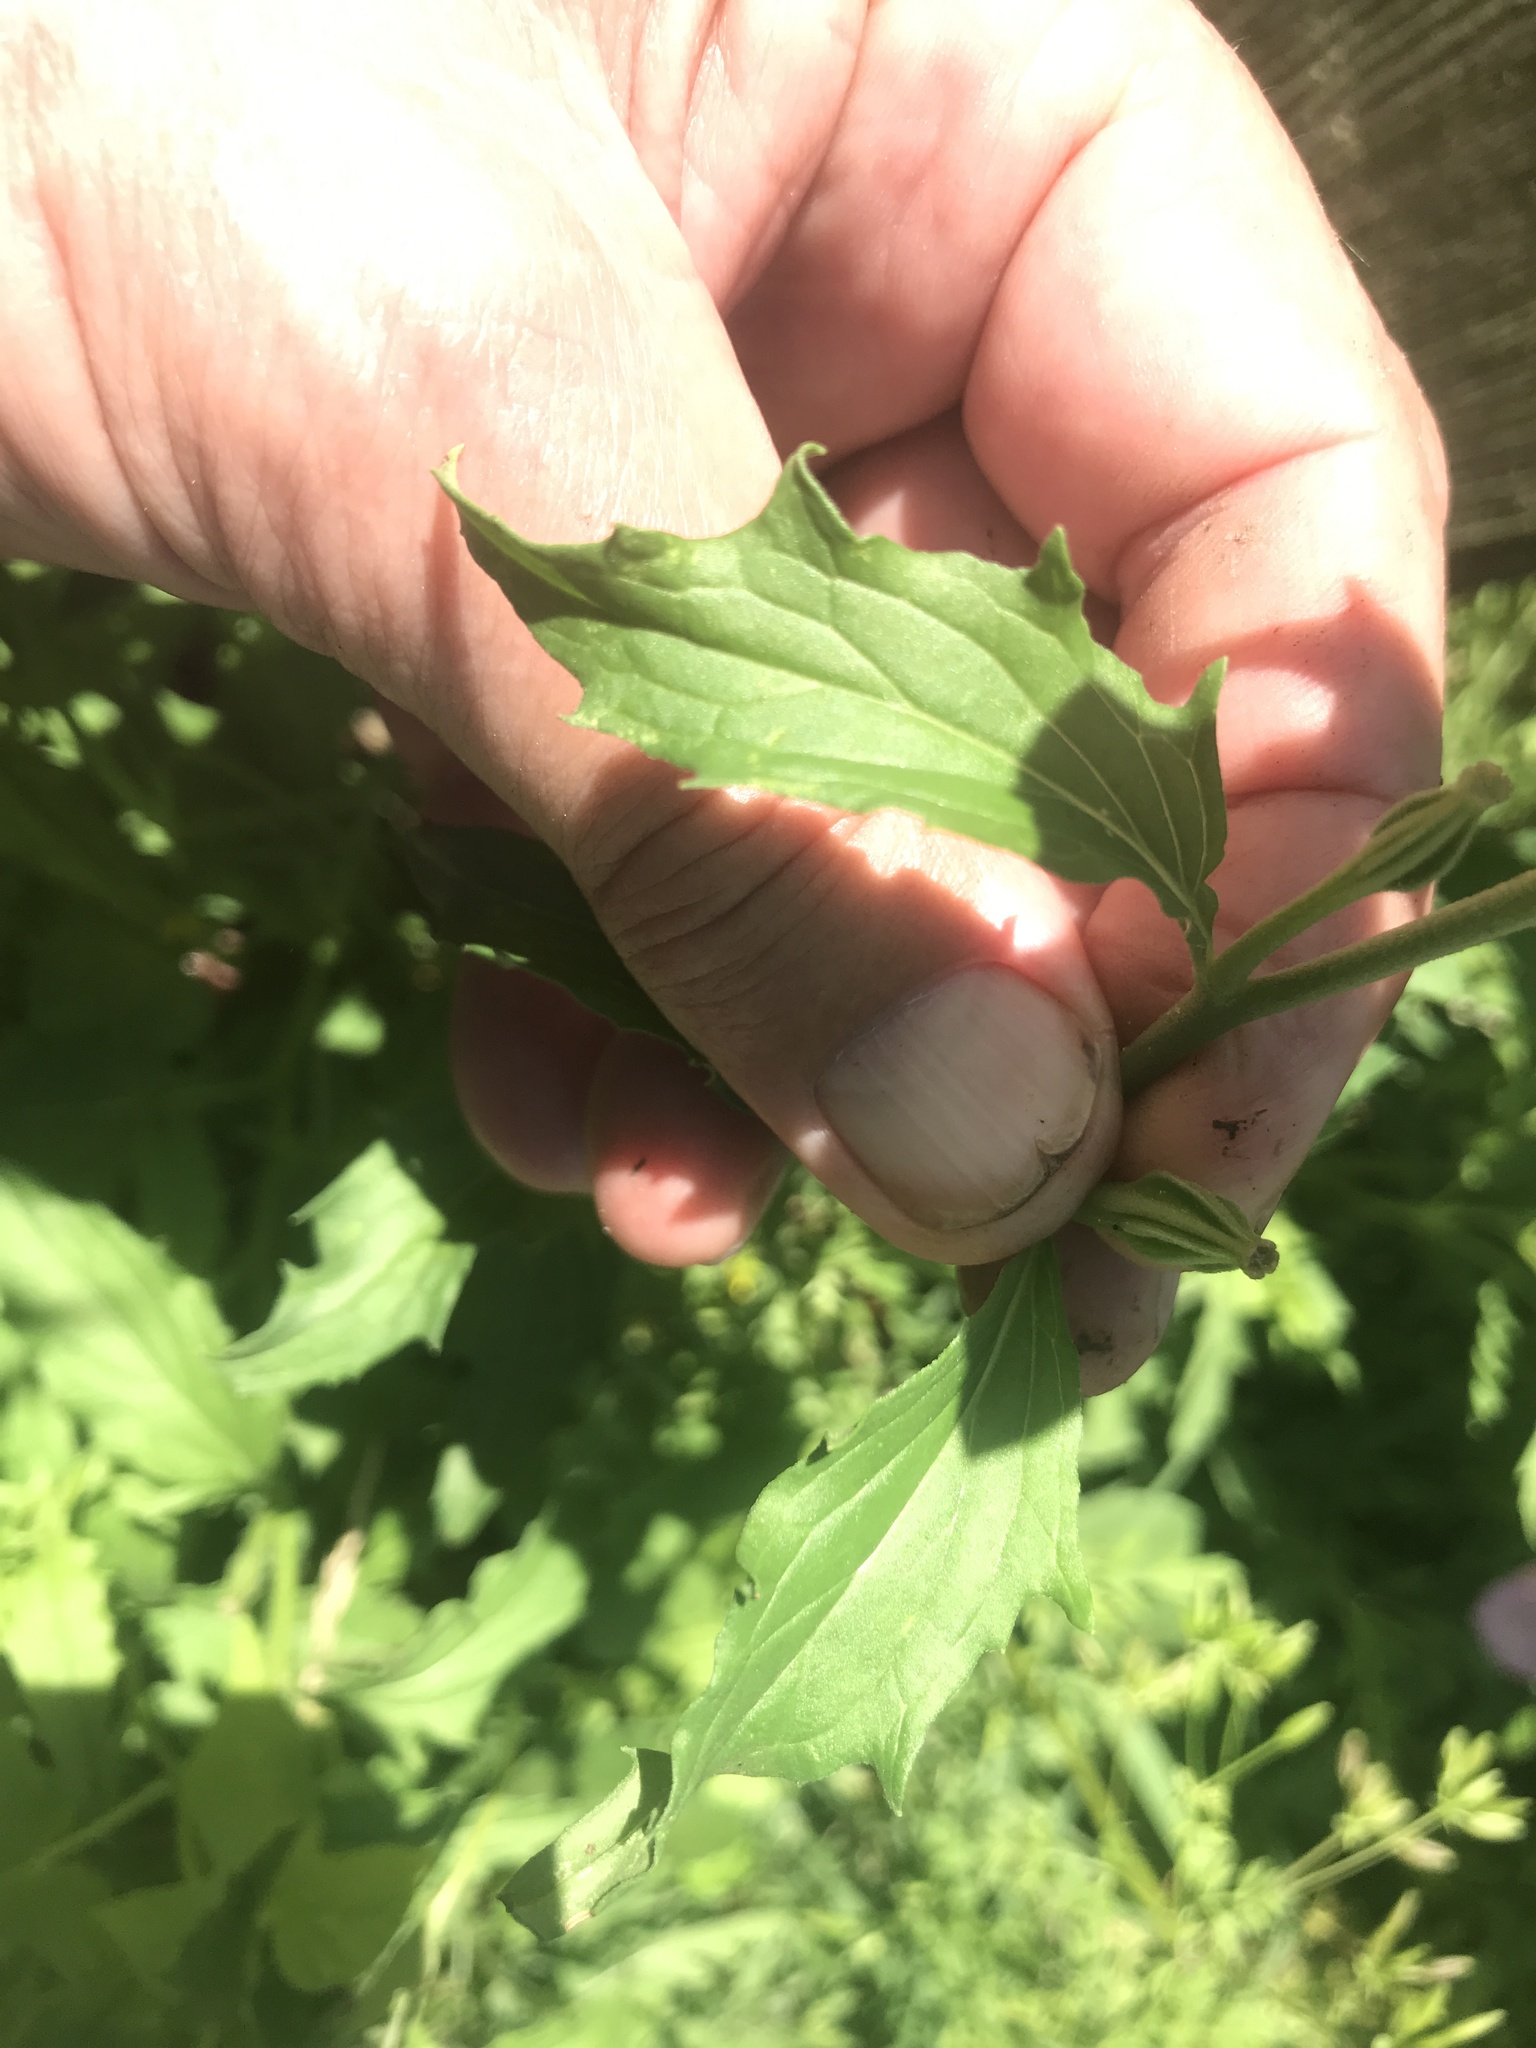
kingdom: Plantae
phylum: Tracheophyta
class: Magnoliopsida
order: Myrtales
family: Onagraceae
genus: Oenothera
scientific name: Oenothera speciosa
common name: White evening-primrose
